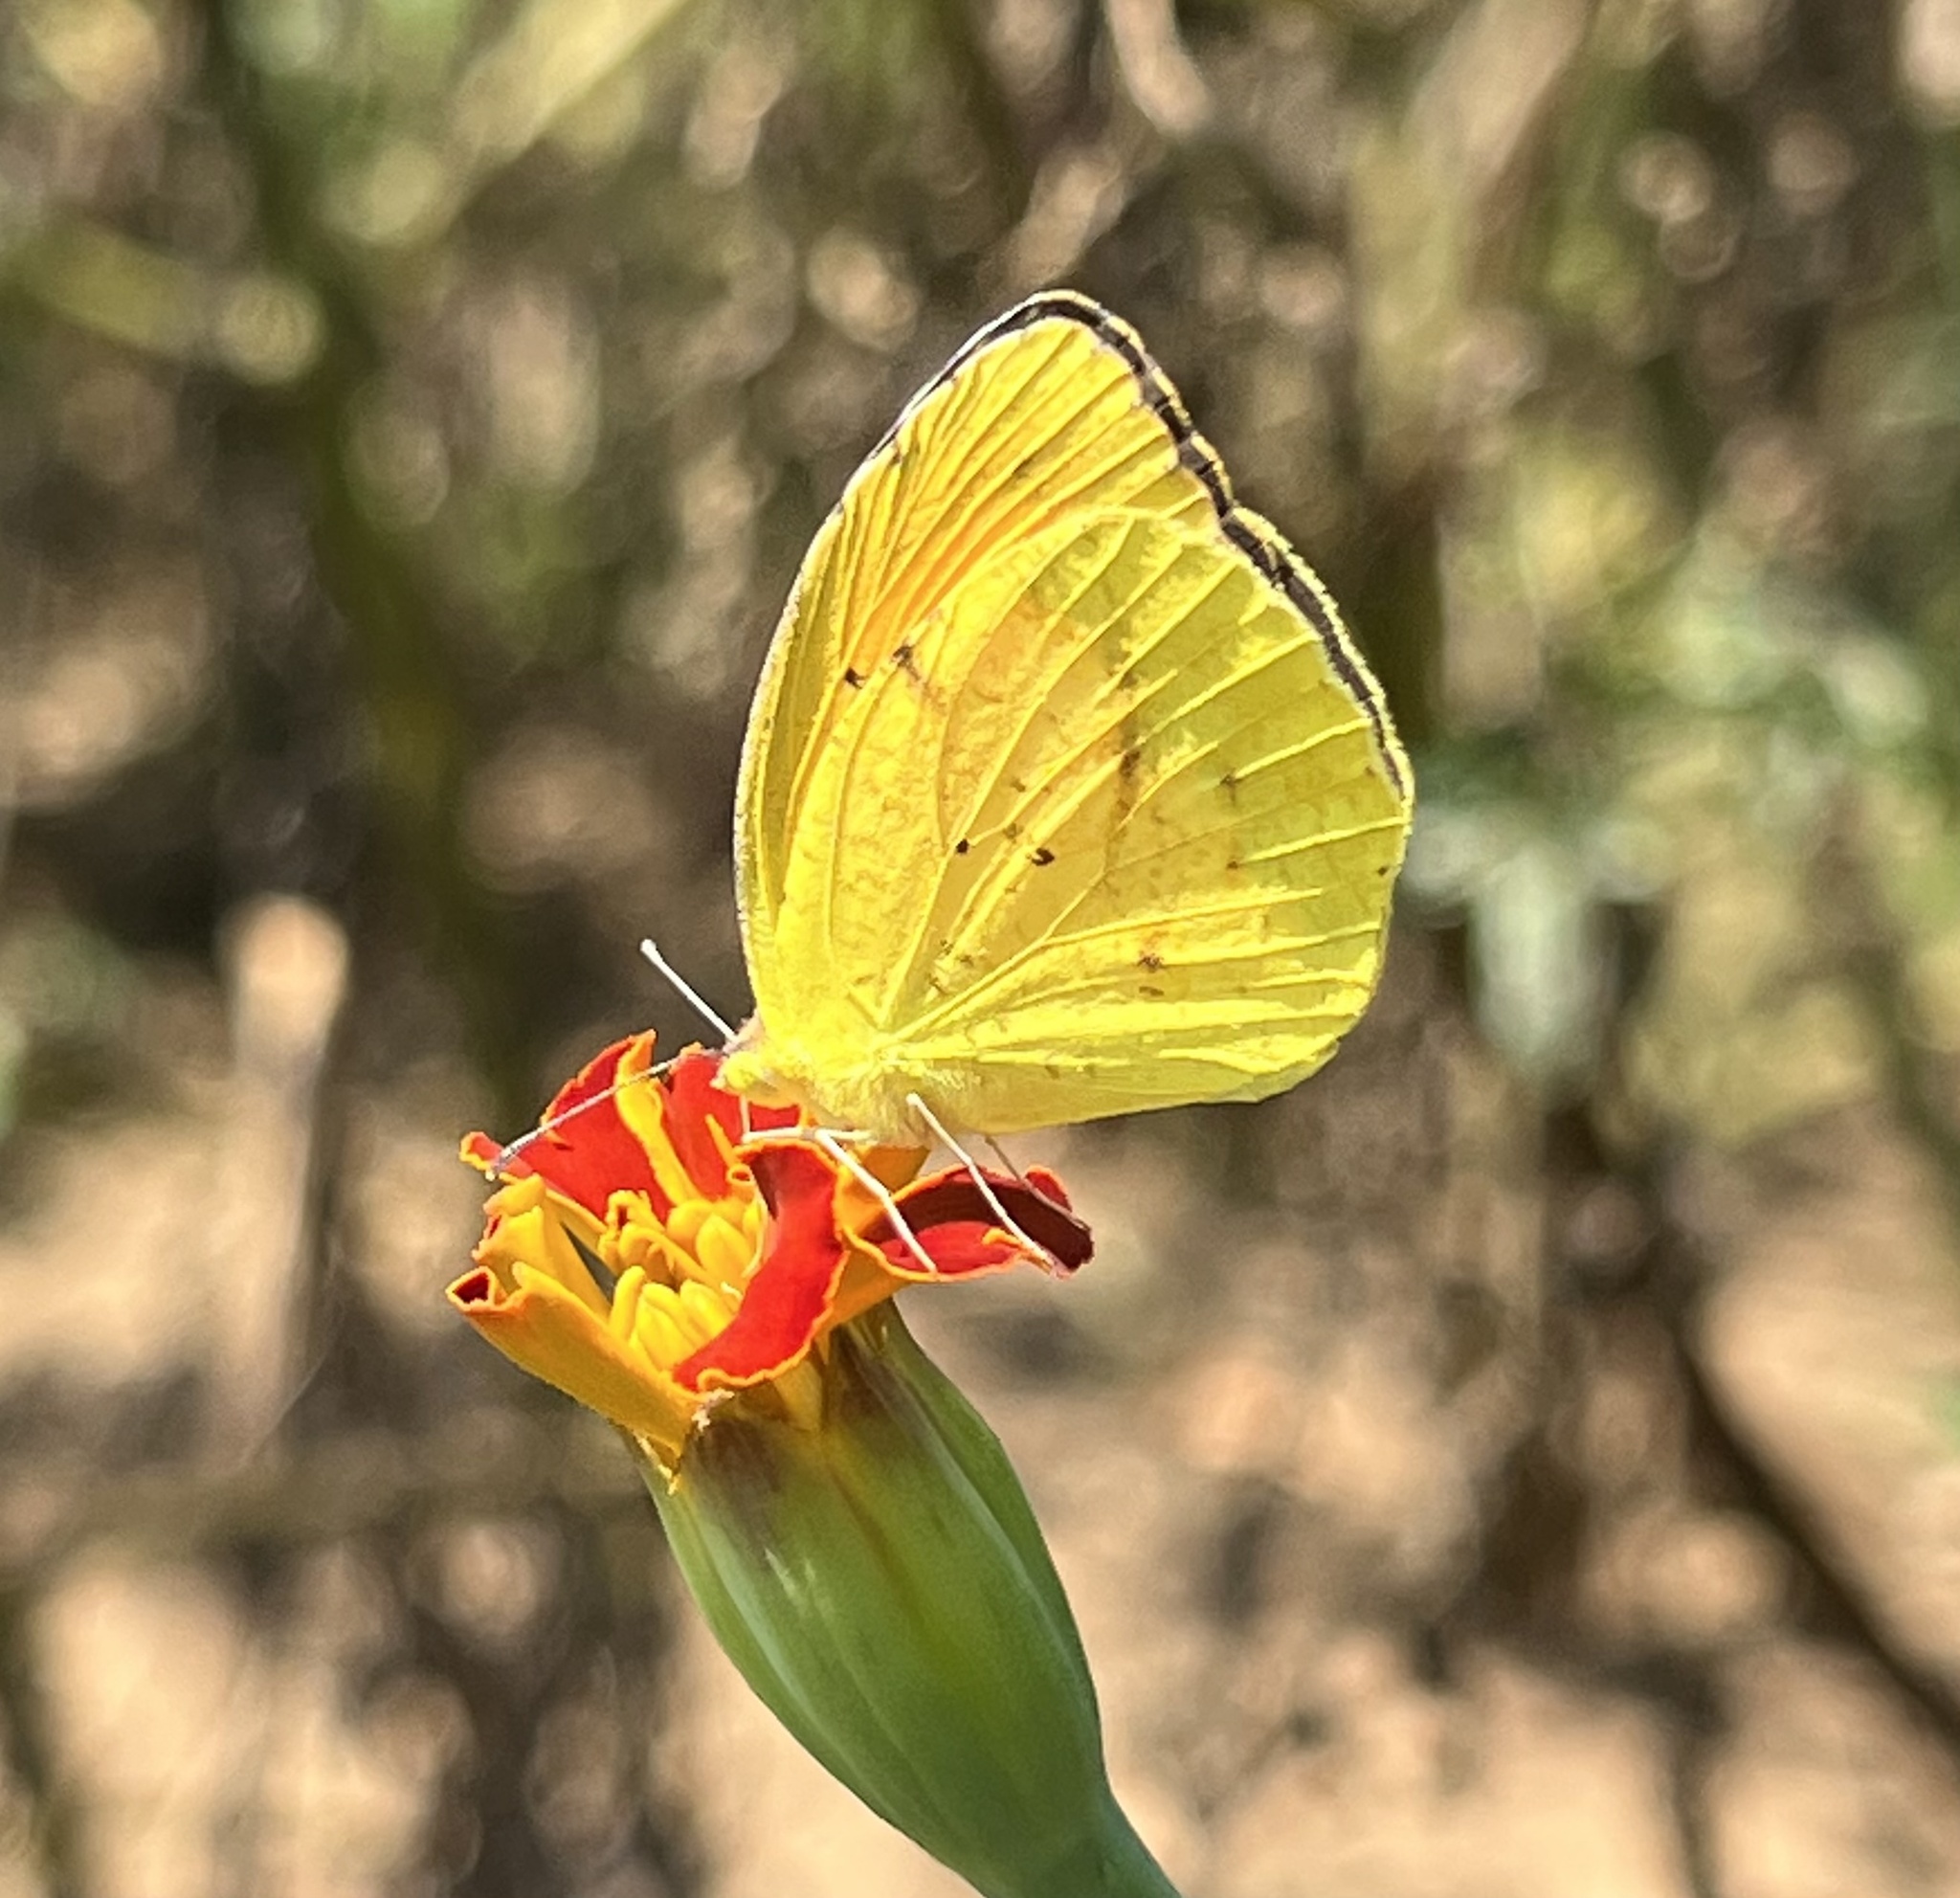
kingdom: Animalia
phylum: Arthropoda
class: Insecta
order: Lepidoptera
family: Pieridae
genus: Abaeis
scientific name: Abaeis nicippe
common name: Sleepy orange
